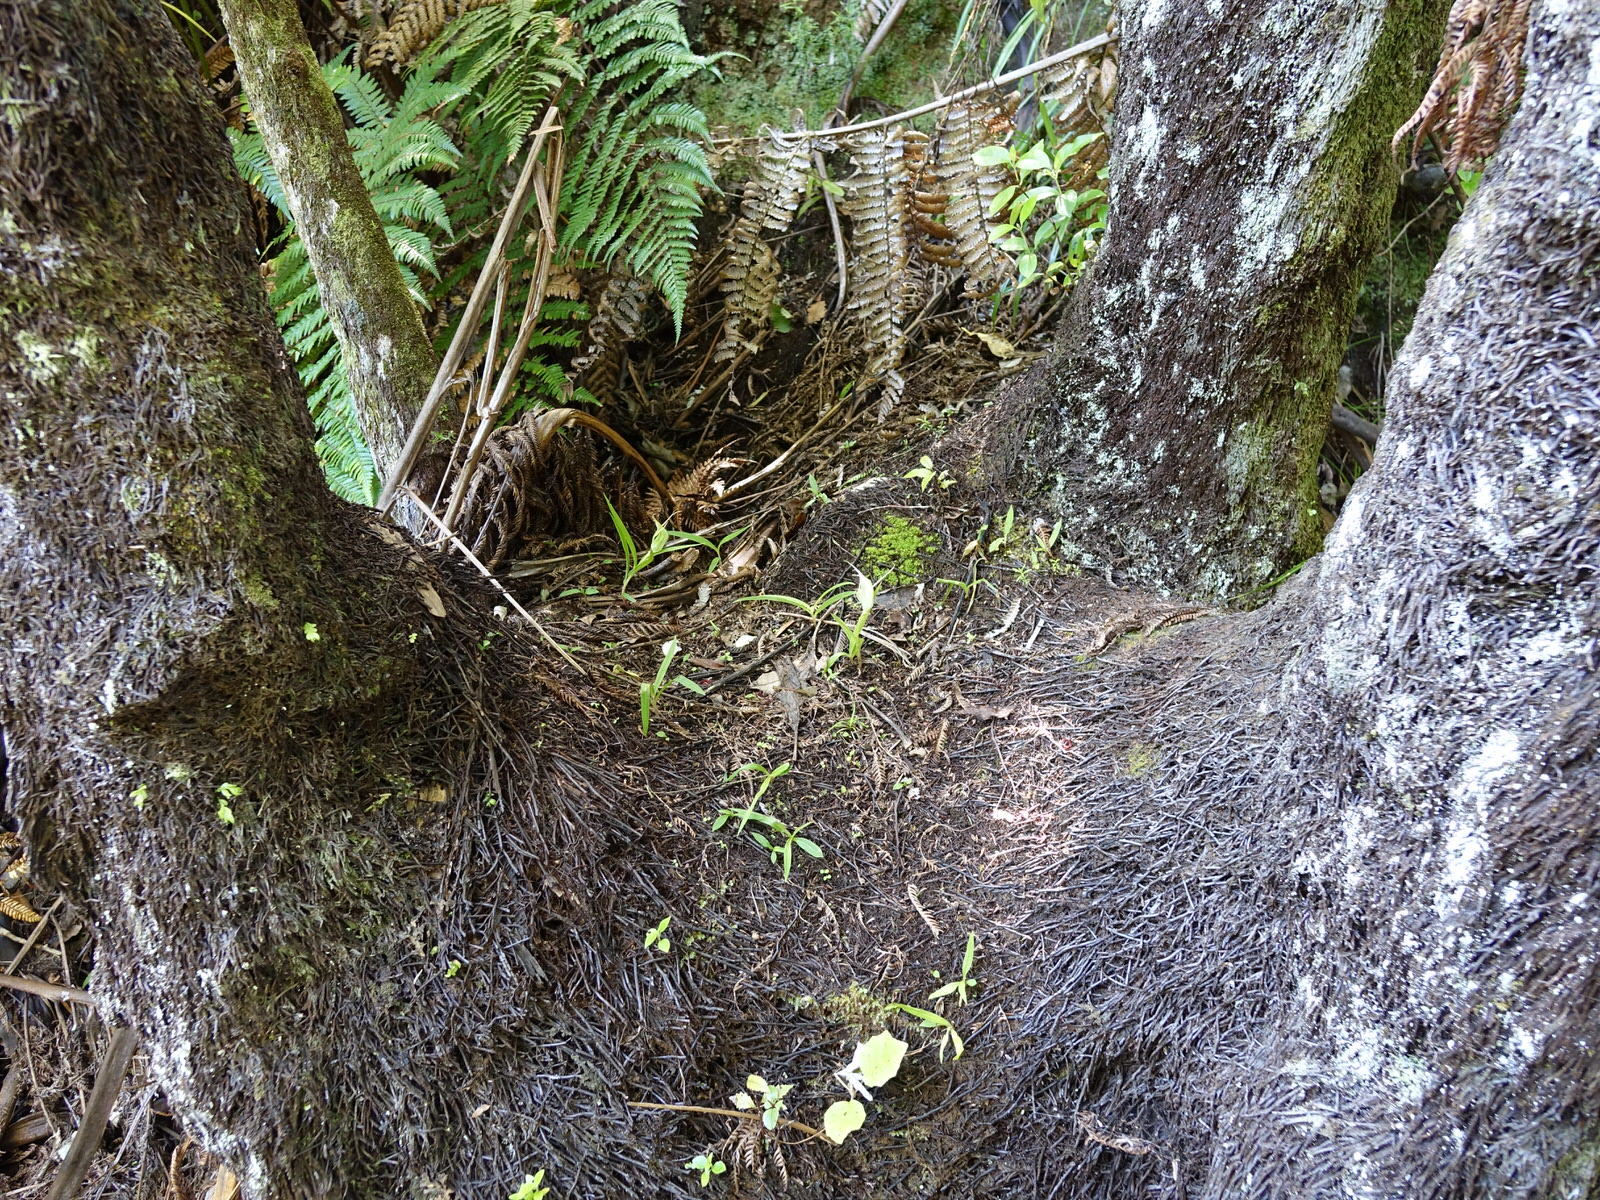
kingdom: Plantae
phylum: Tracheophyta
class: Liliopsida
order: Asparagales
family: Orchidaceae
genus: Pterostylis
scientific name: Pterostylis banksii
